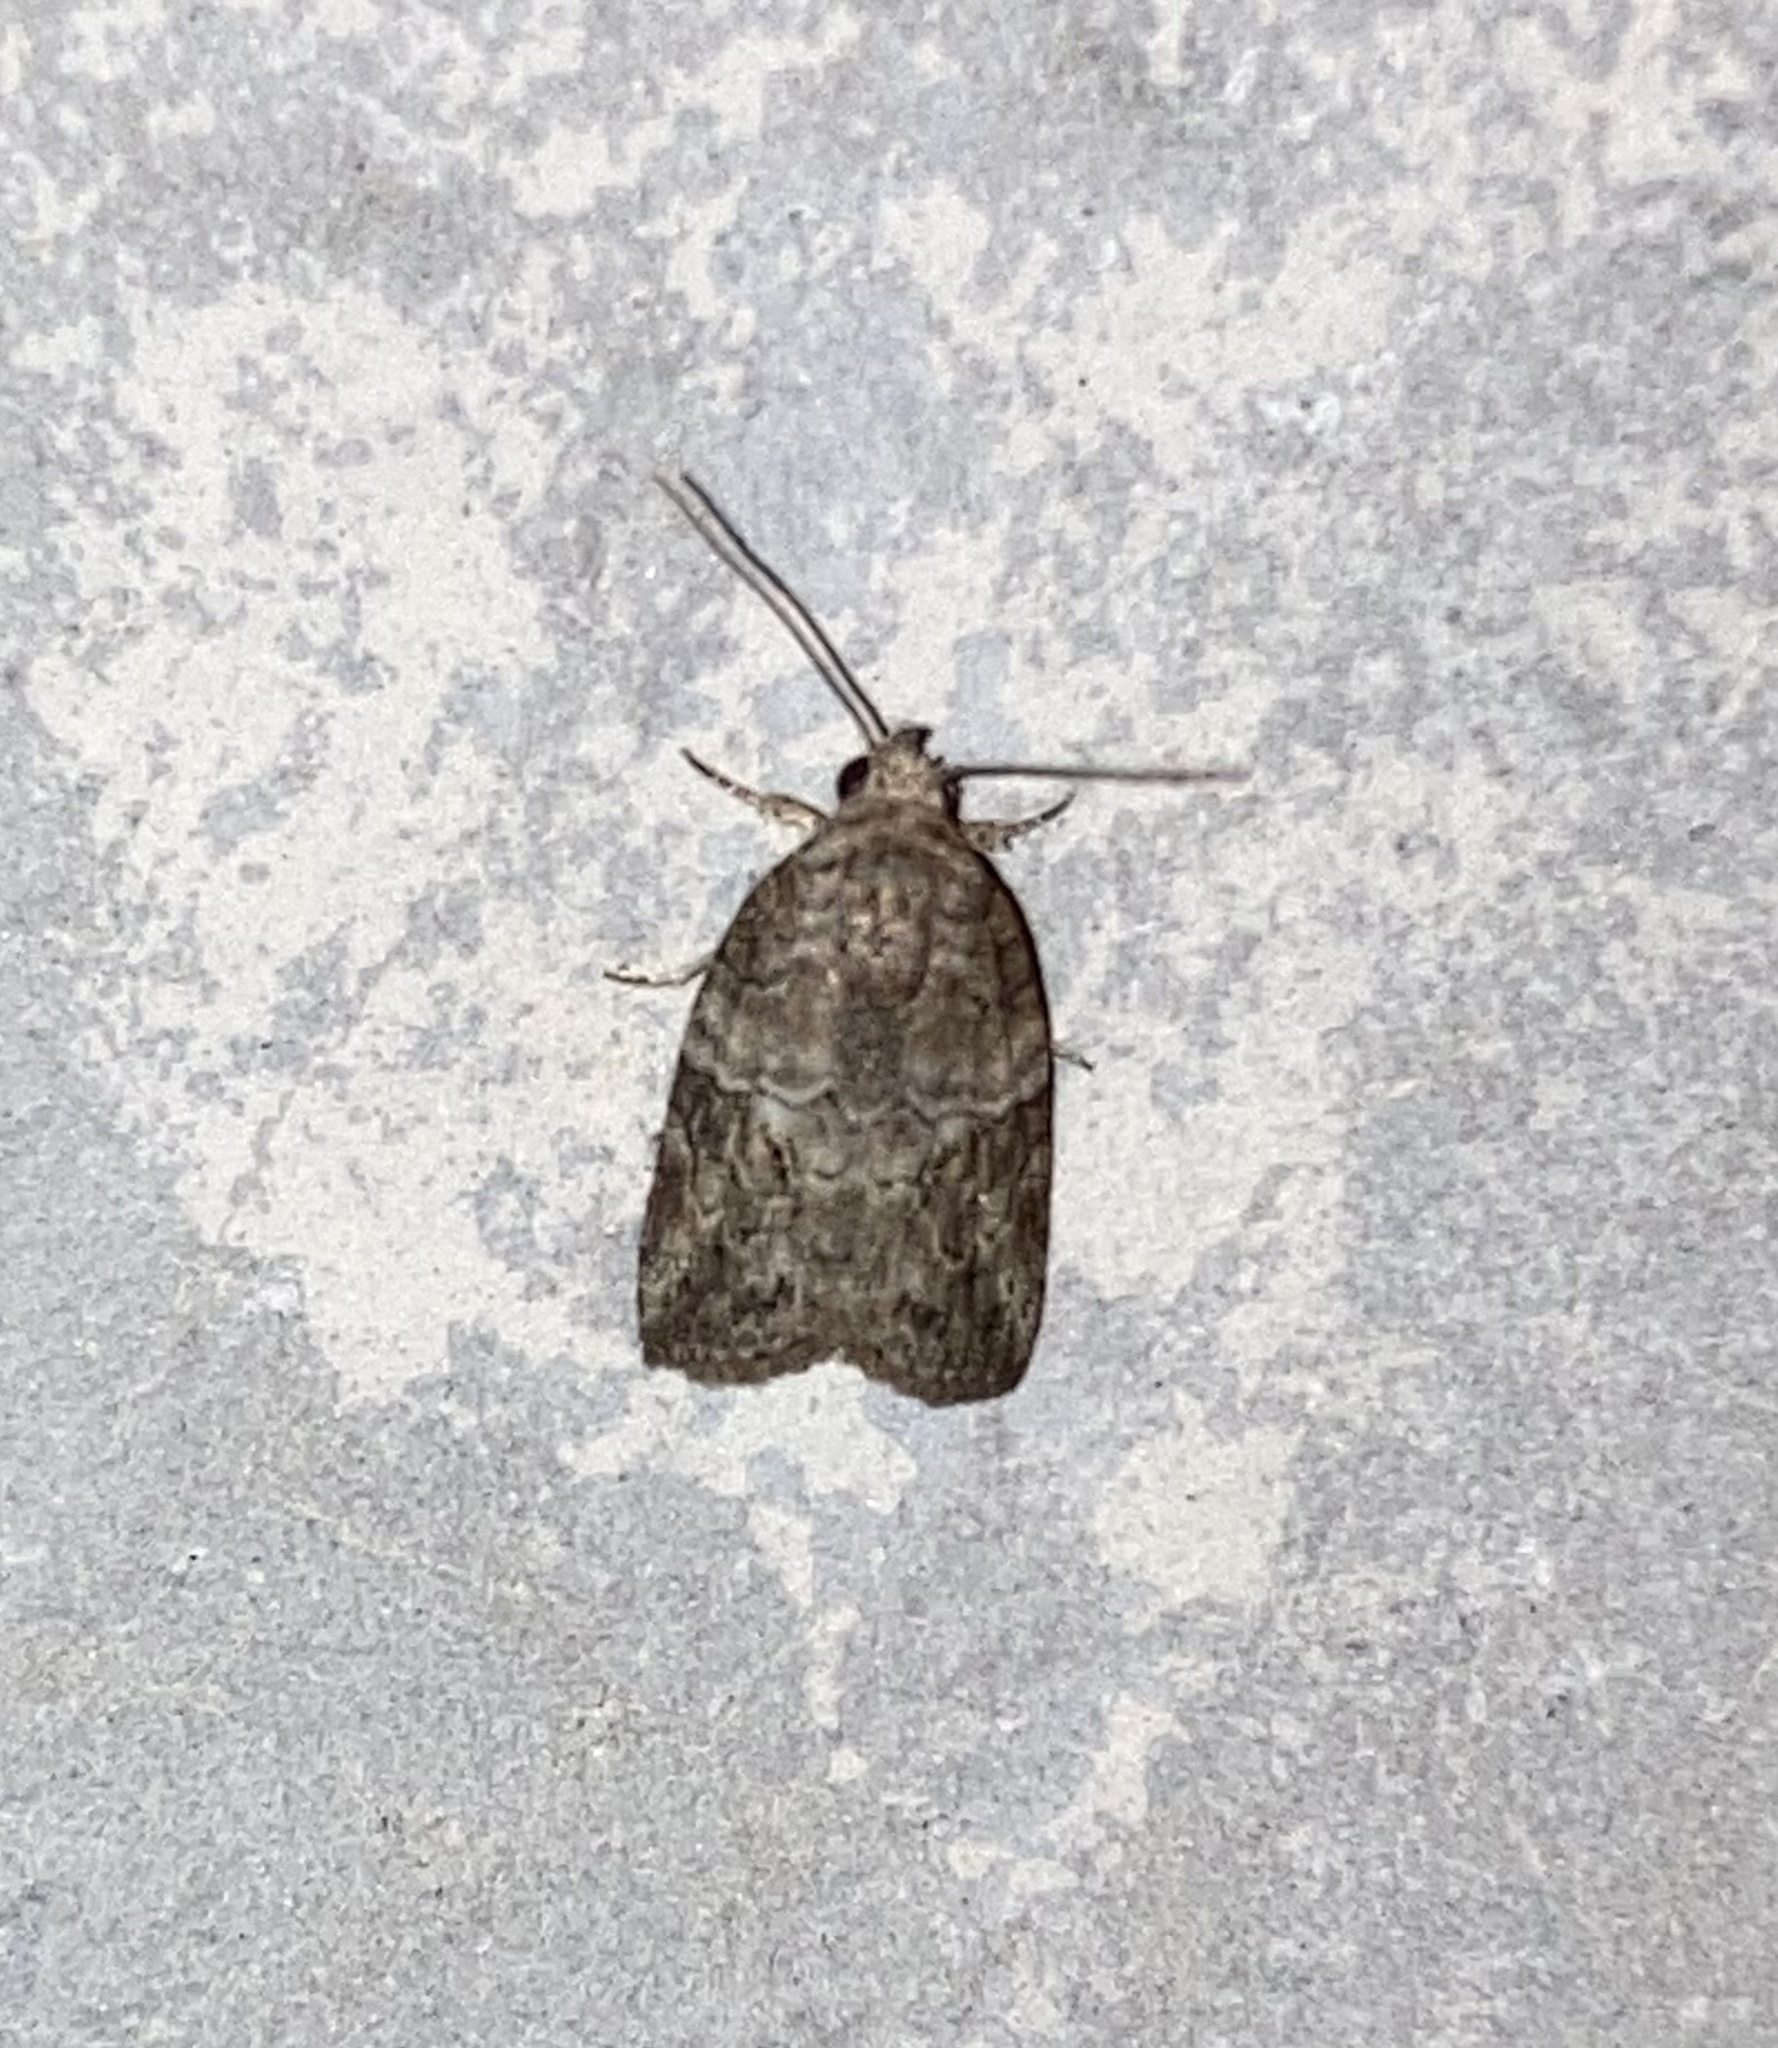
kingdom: Animalia
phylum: Arthropoda
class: Insecta
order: Lepidoptera
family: Nolidae
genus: Garella
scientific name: Garella nilotica
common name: Black-olive caterpillar moth
